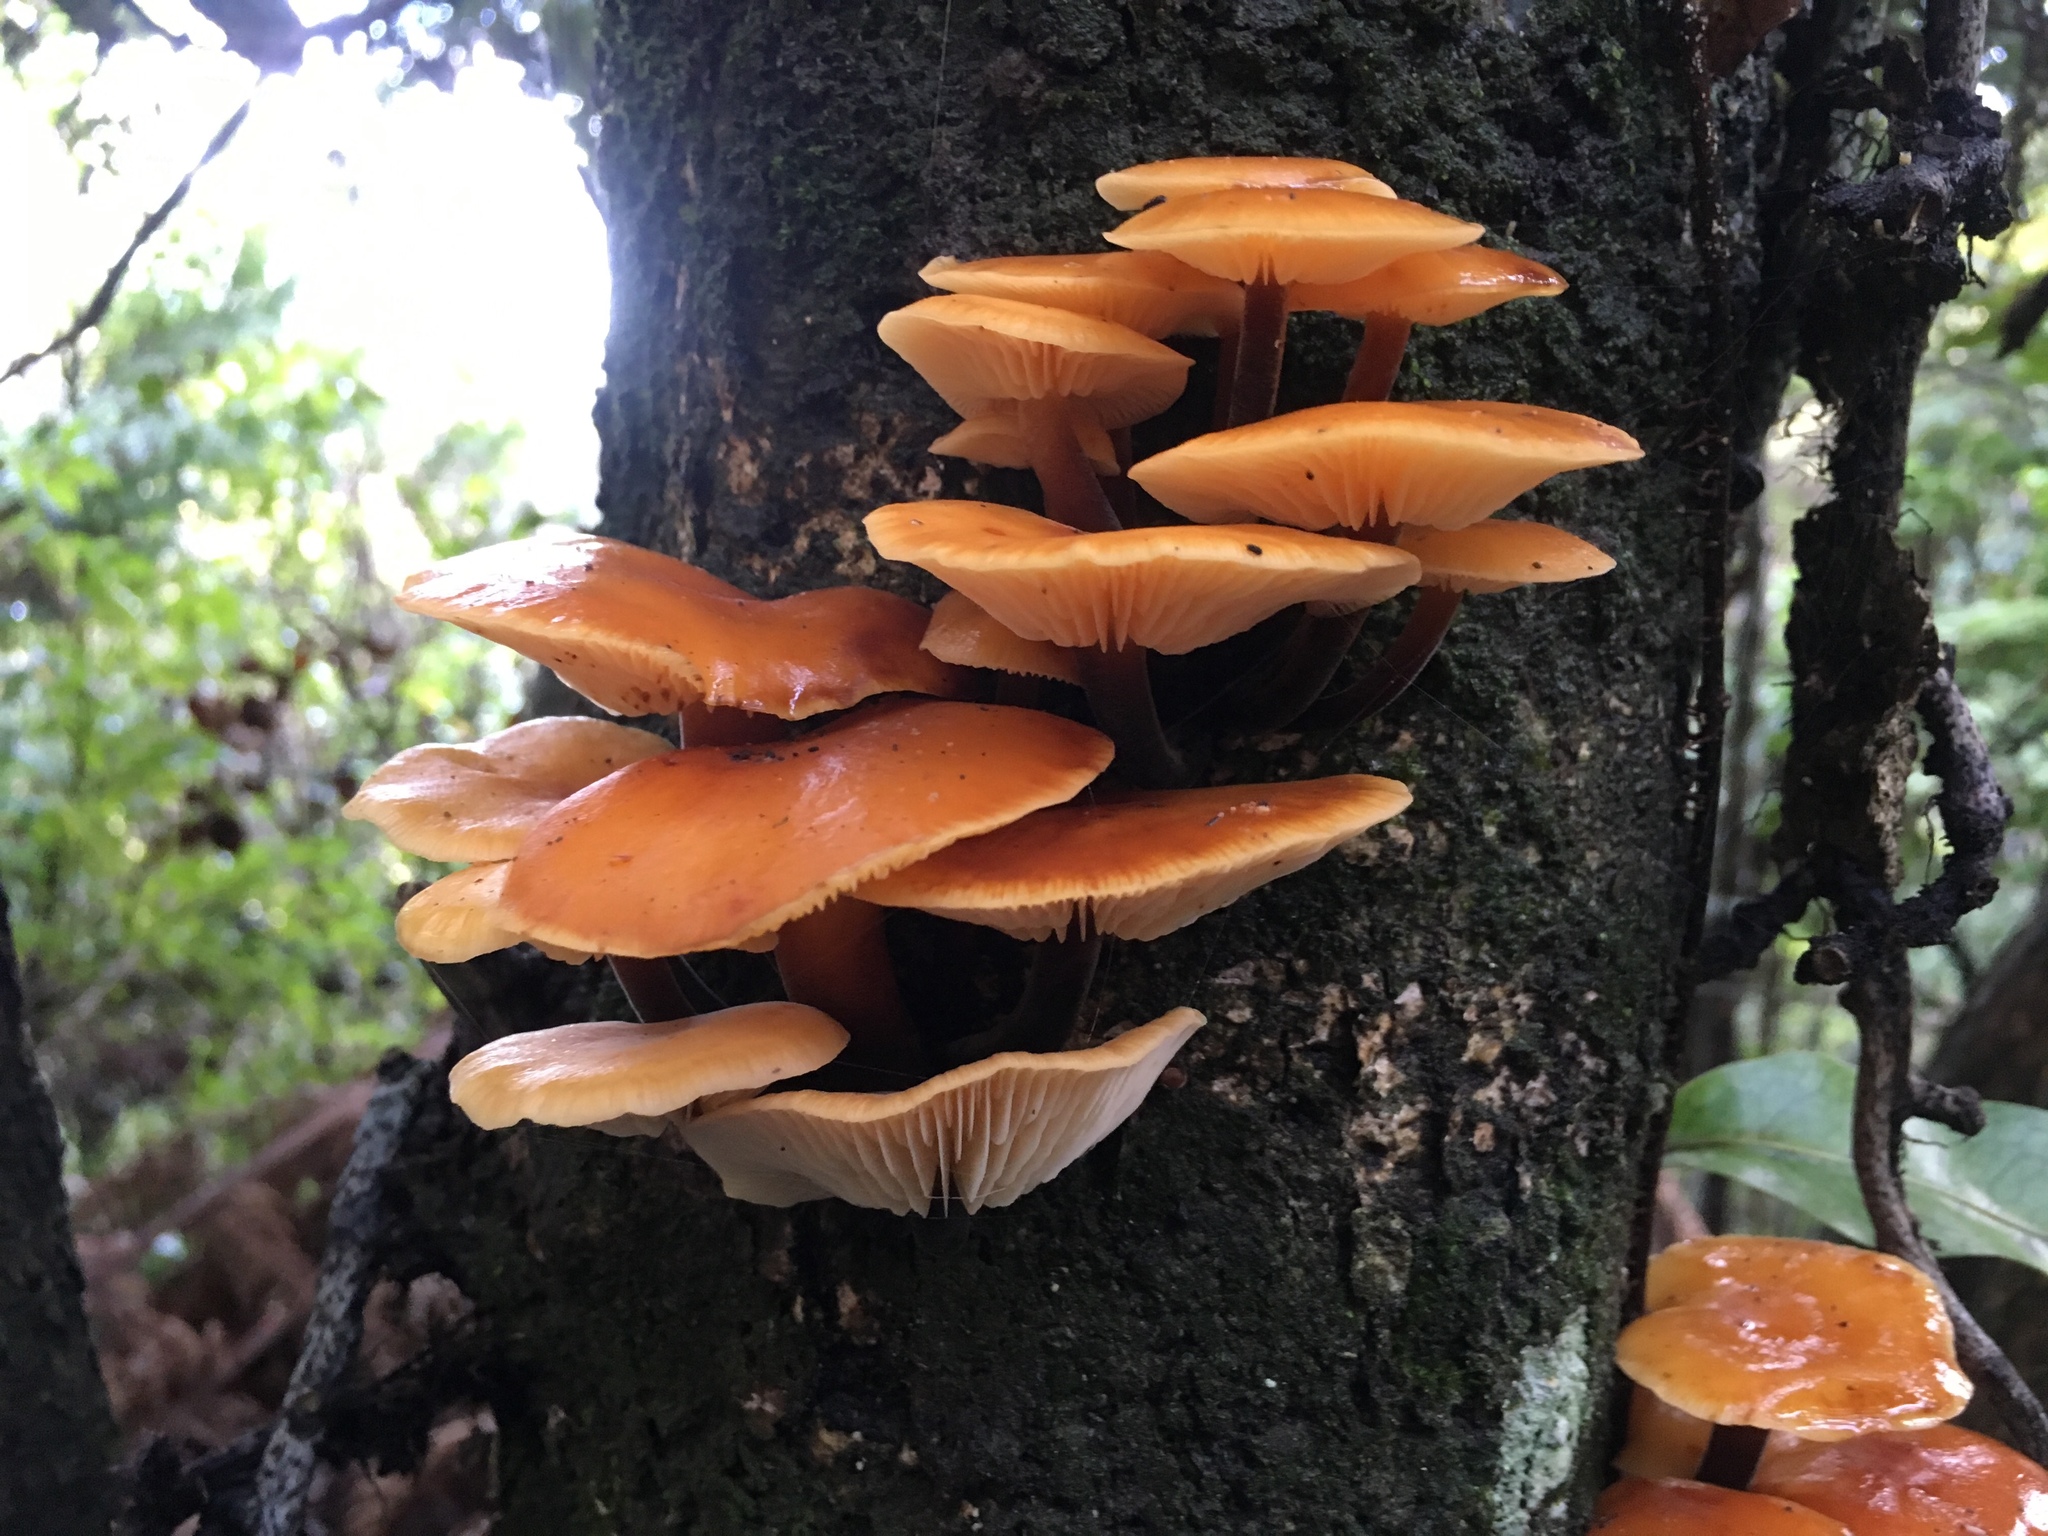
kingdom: Fungi
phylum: Basidiomycota
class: Agaricomycetes
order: Agaricales
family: Physalacriaceae
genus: Flammulina
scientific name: Flammulina velutipes
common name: Velvet shank
